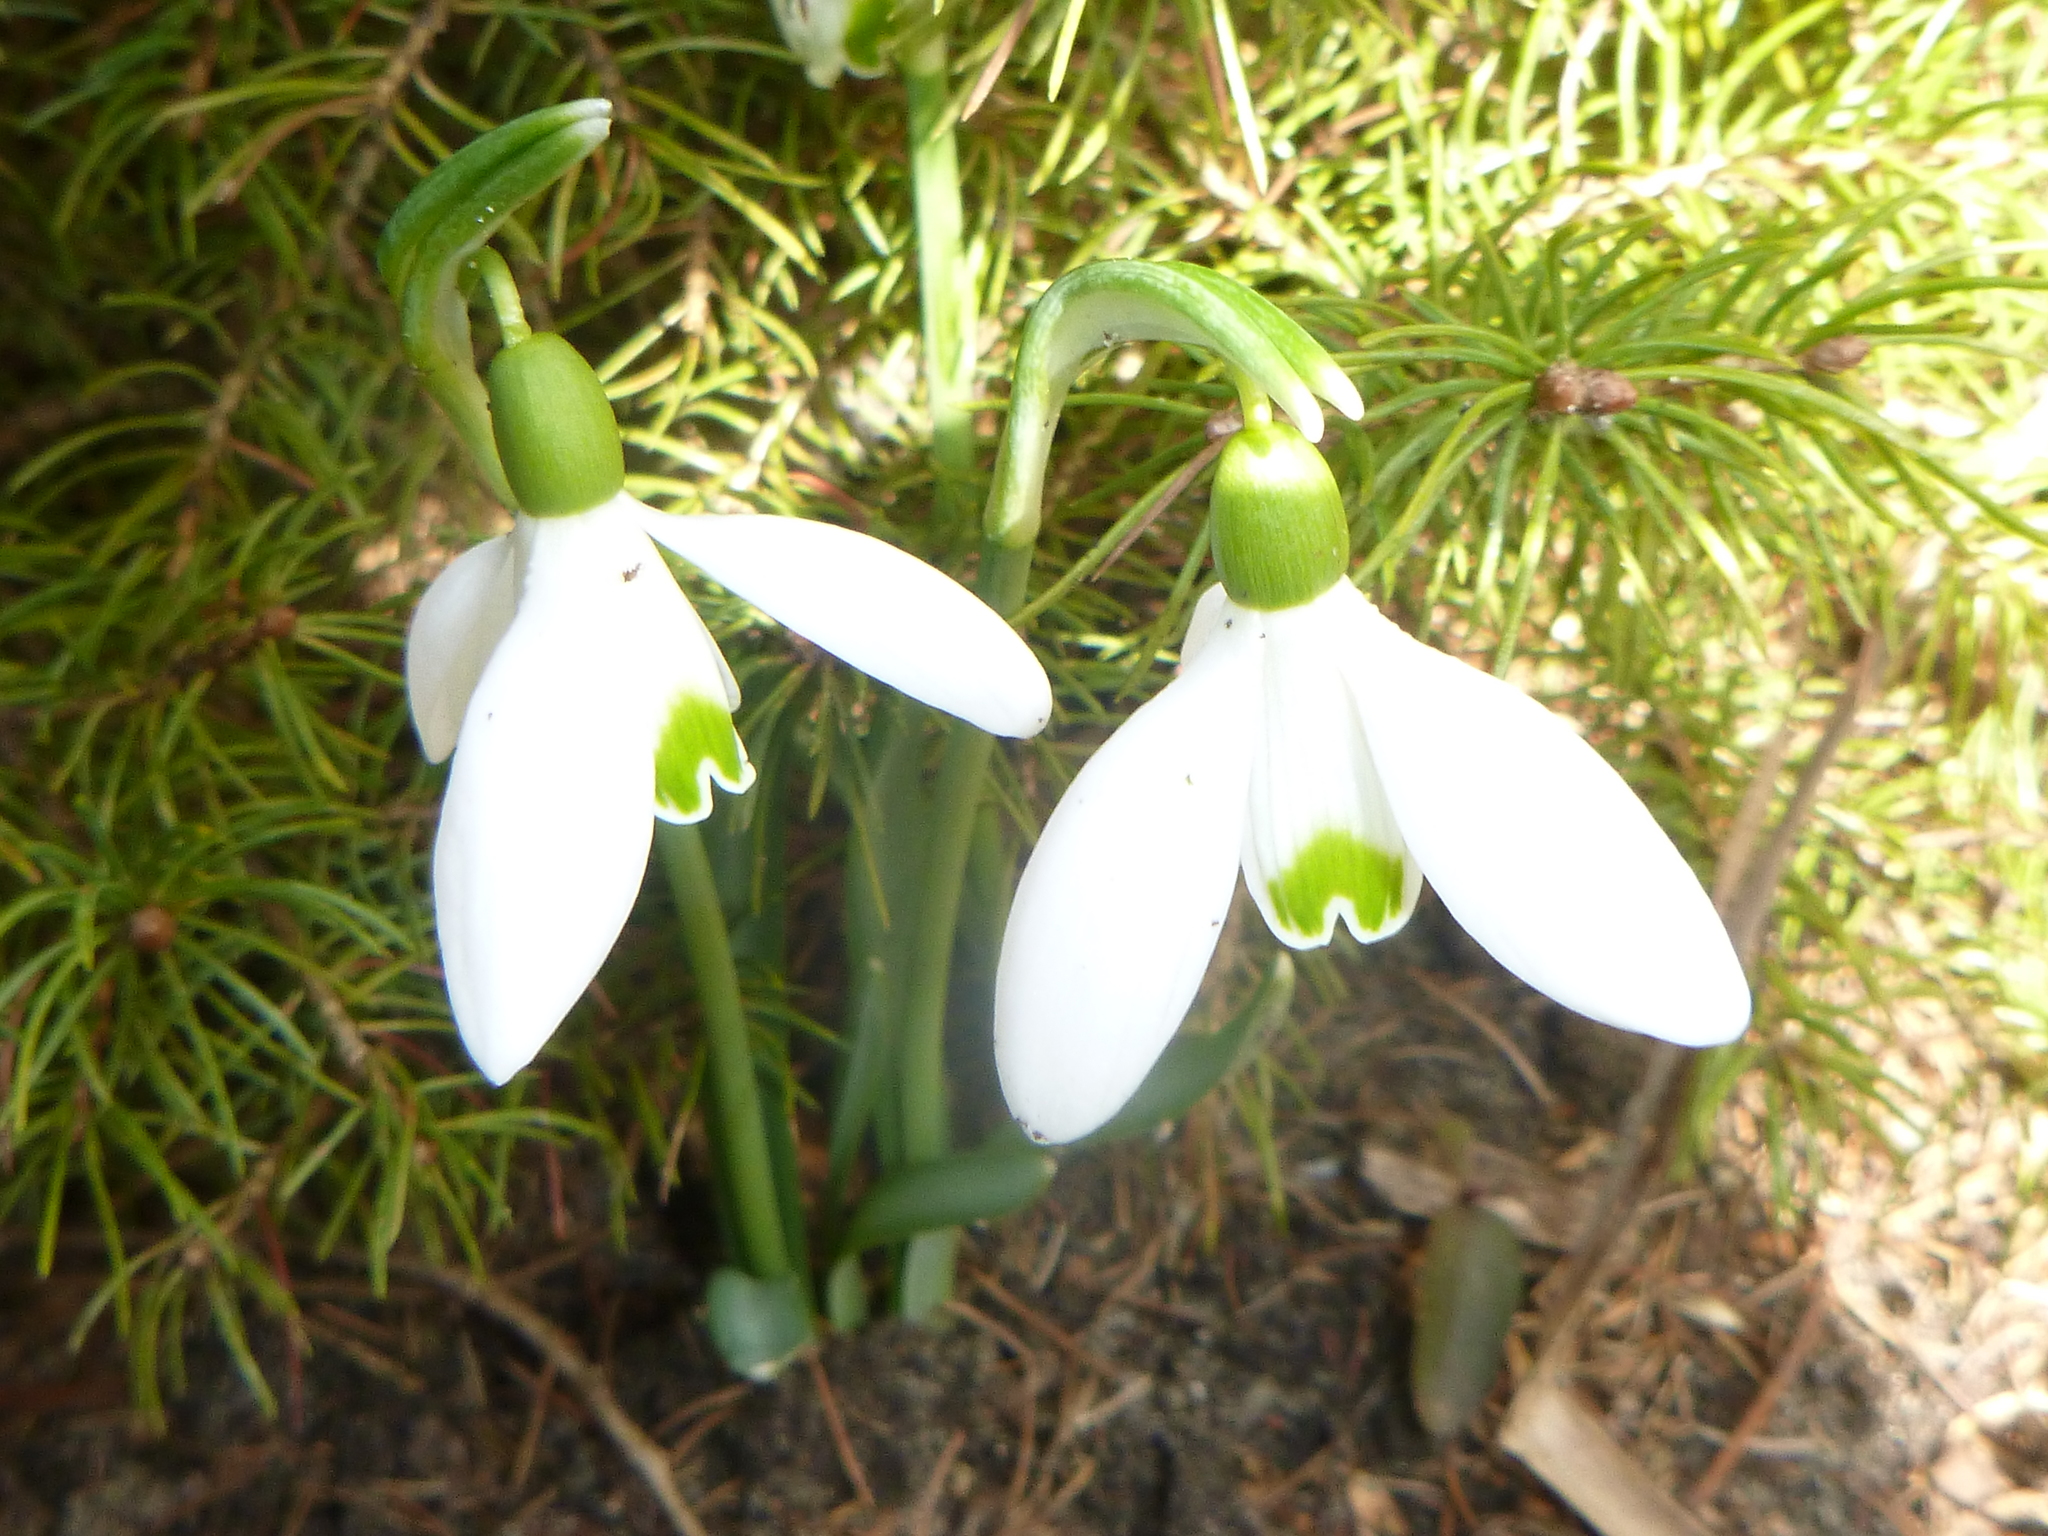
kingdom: Plantae
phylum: Tracheophyta
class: Liliopsida
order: Asparagales
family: Amaryllidaceae
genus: Galanthus
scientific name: Galanthus nivalis
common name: Snowdrop
